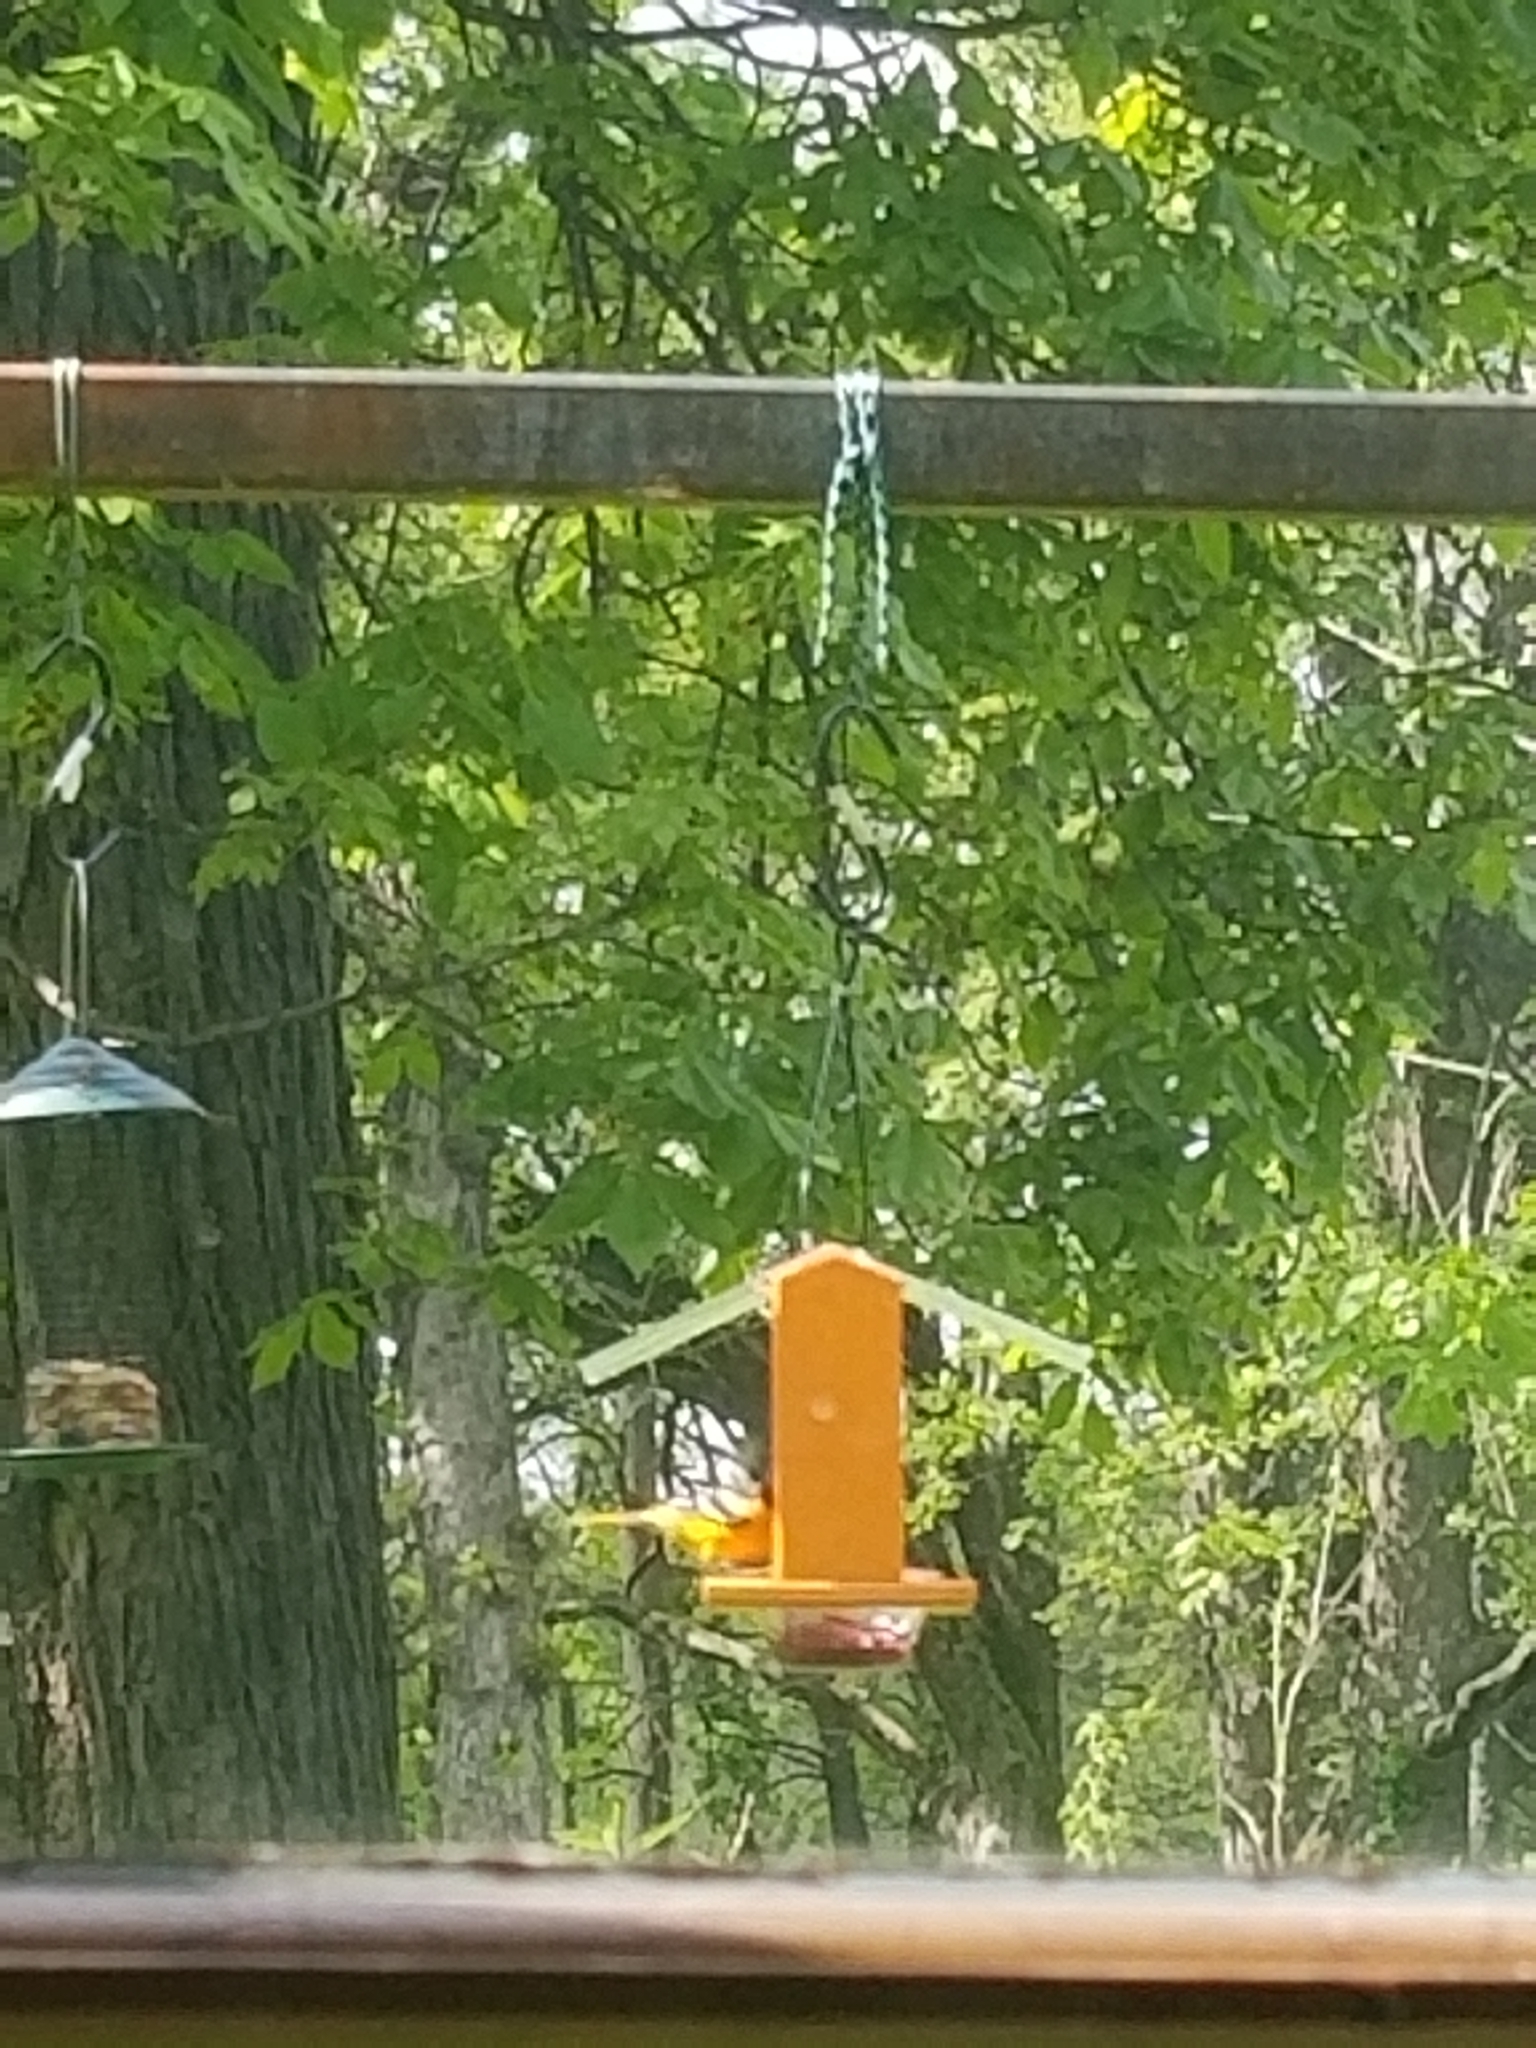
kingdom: Animalia
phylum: Chordata
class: Aves
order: Passeriformes
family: Icteridae
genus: Icterus
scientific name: Icterus galbula
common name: Baltimore oriole
